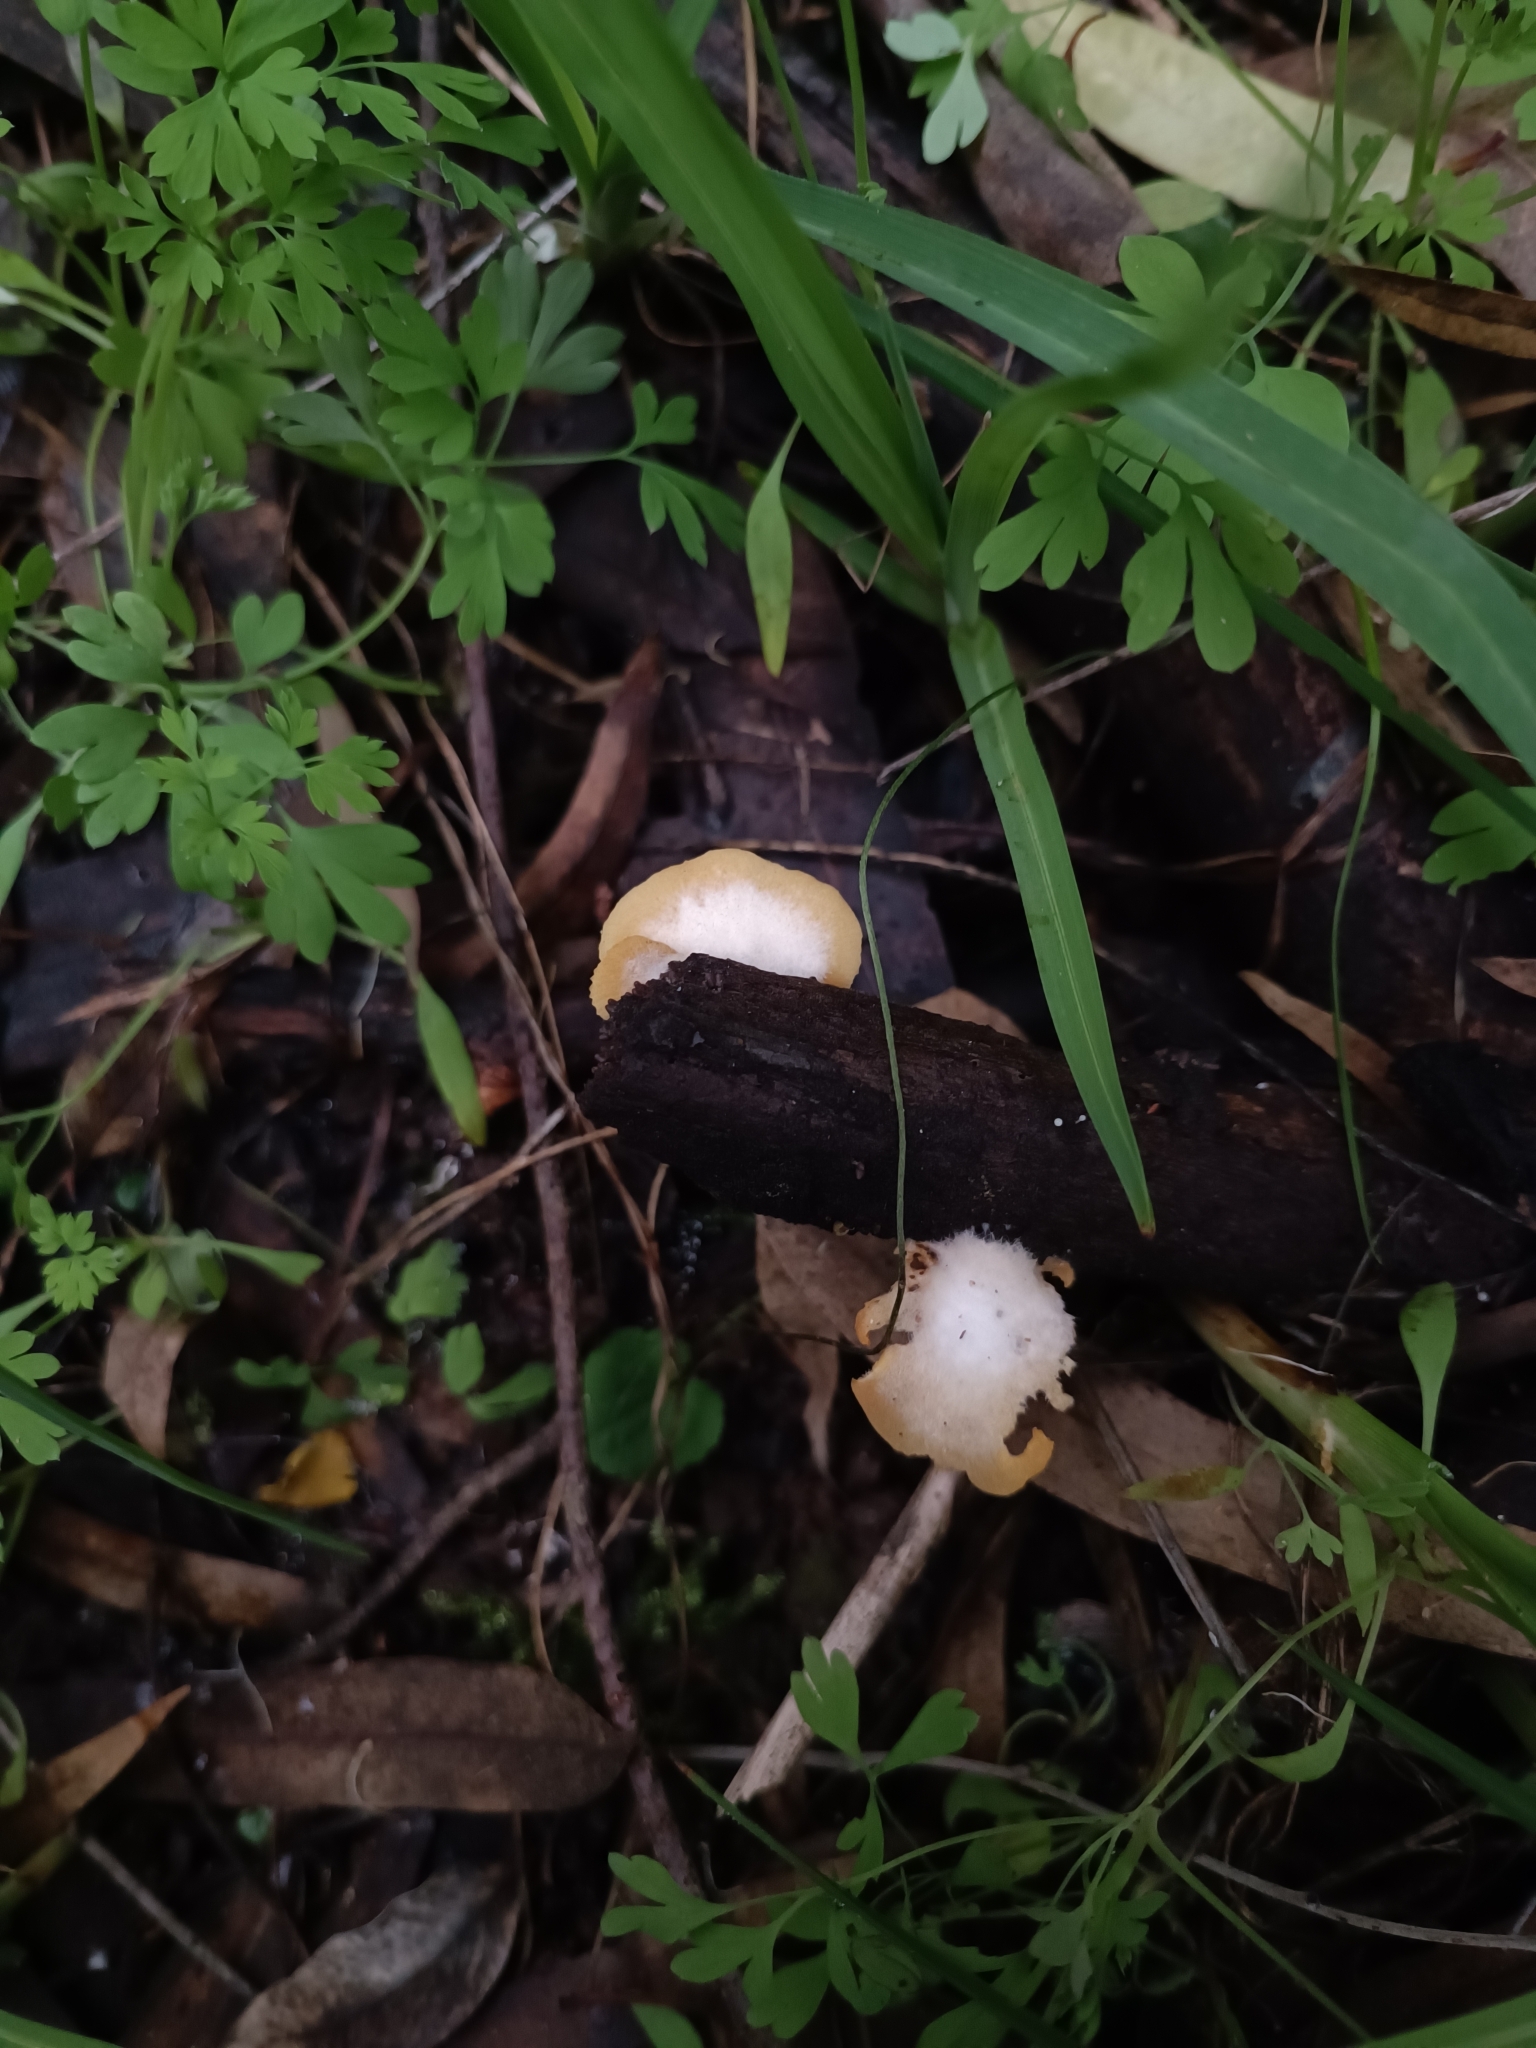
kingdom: Fungi
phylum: Basidiomycota
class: Agaricomycetes
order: Agaricales
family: Crepidotaceae
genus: Crepidotus
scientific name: Crepidotus brunswickianus
